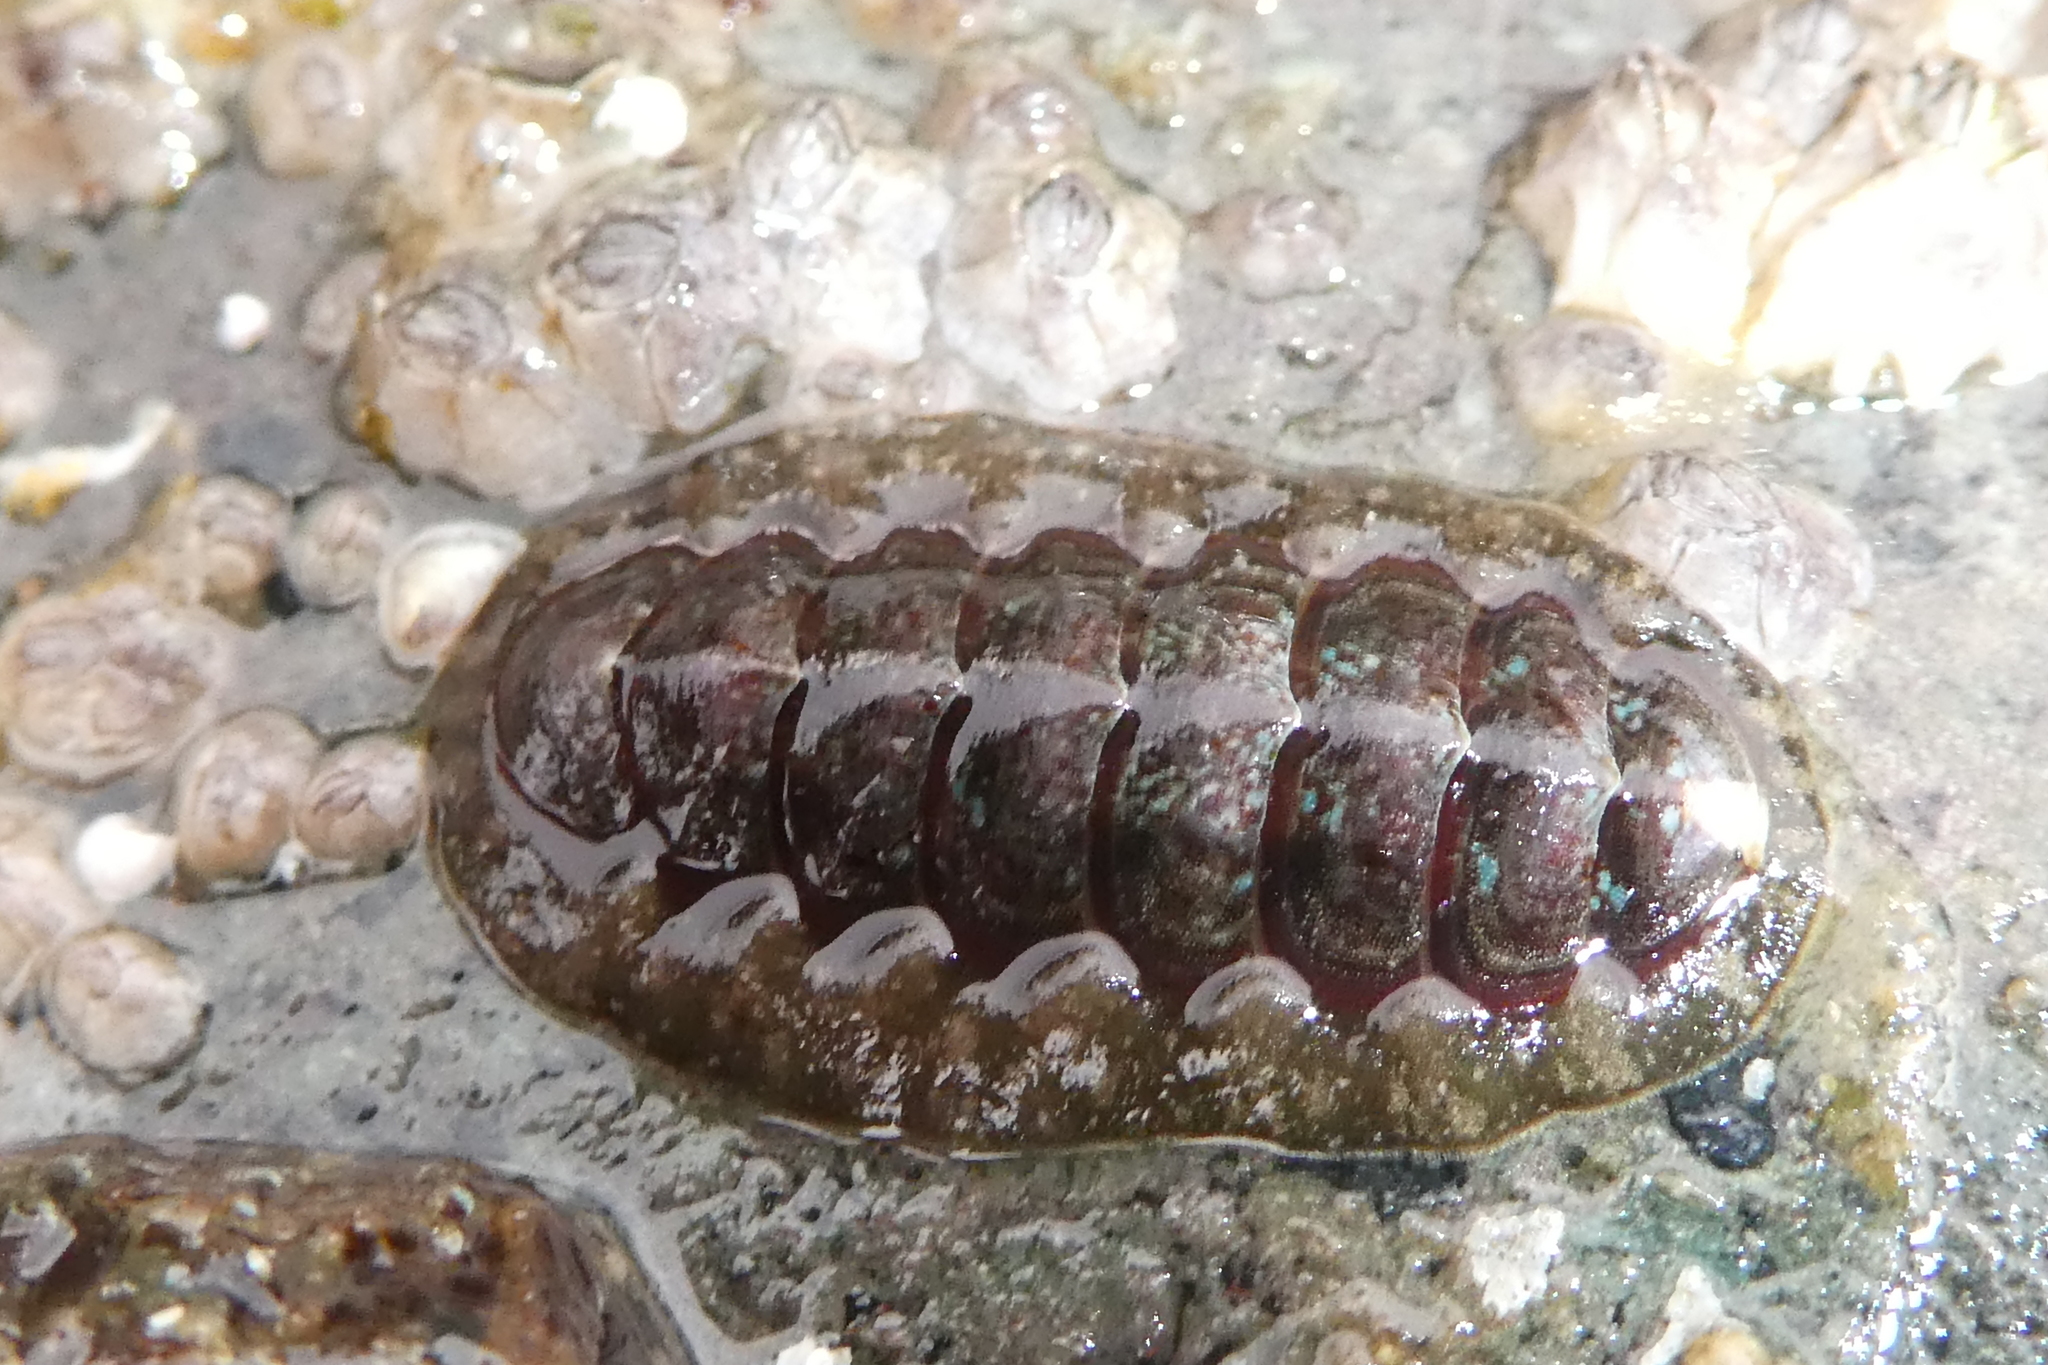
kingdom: Animalia
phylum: Mollusca
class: Polyplacophora
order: Chitonida
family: Tonicellidae
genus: Cyanoplax
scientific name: Cyanoplax dentiens
